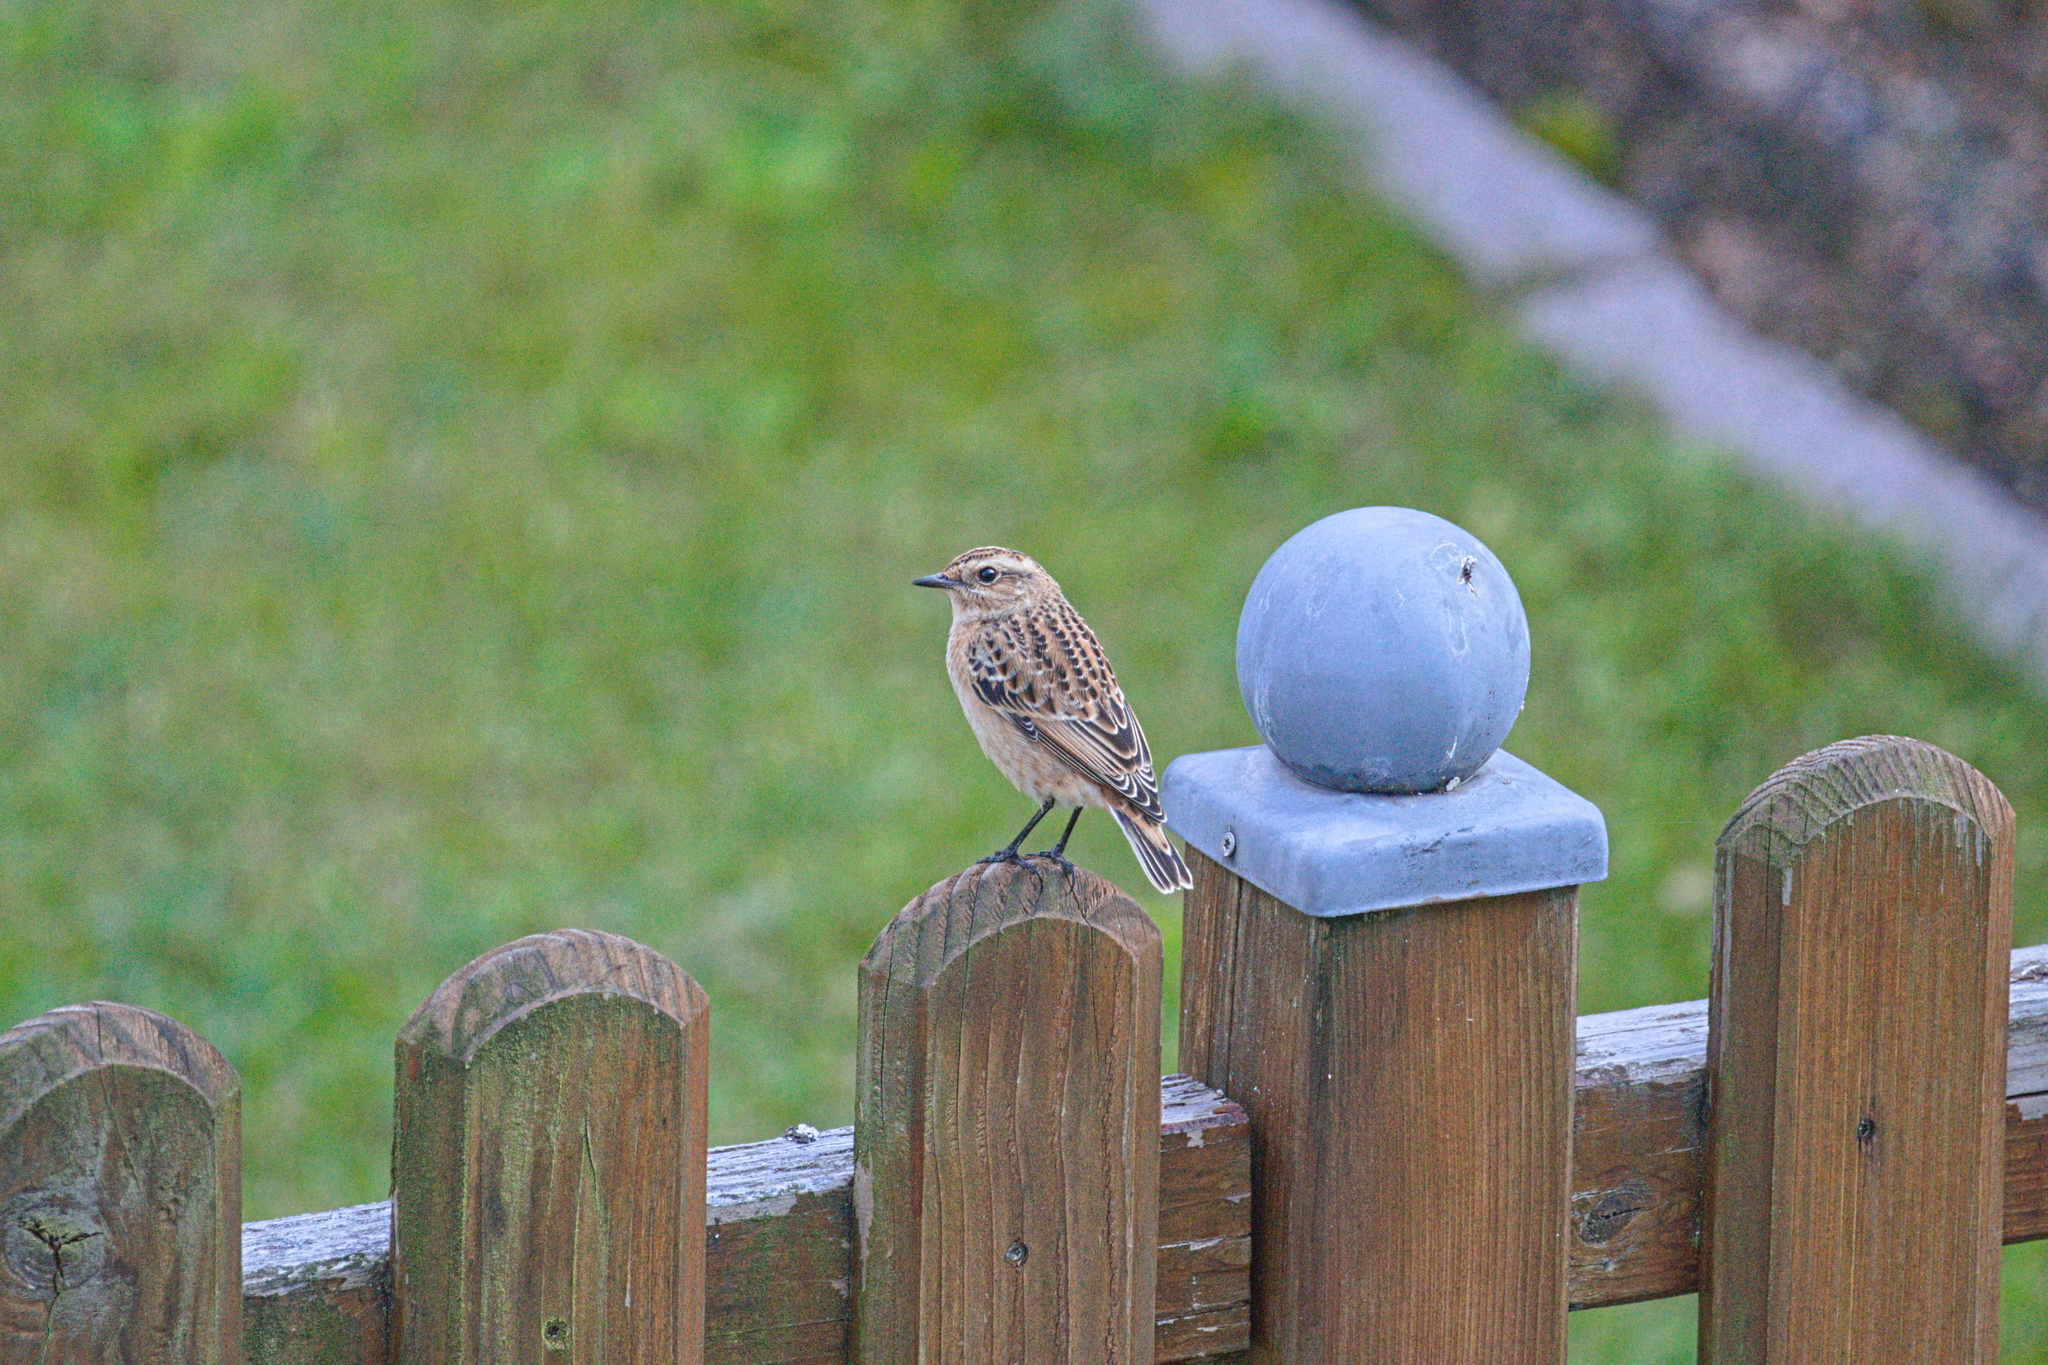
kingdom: Animalia
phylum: Chordata
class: Aves
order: Passeriformes
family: Muscicapidae
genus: Saxicola
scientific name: Saxicola rubetra
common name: Whinchat
